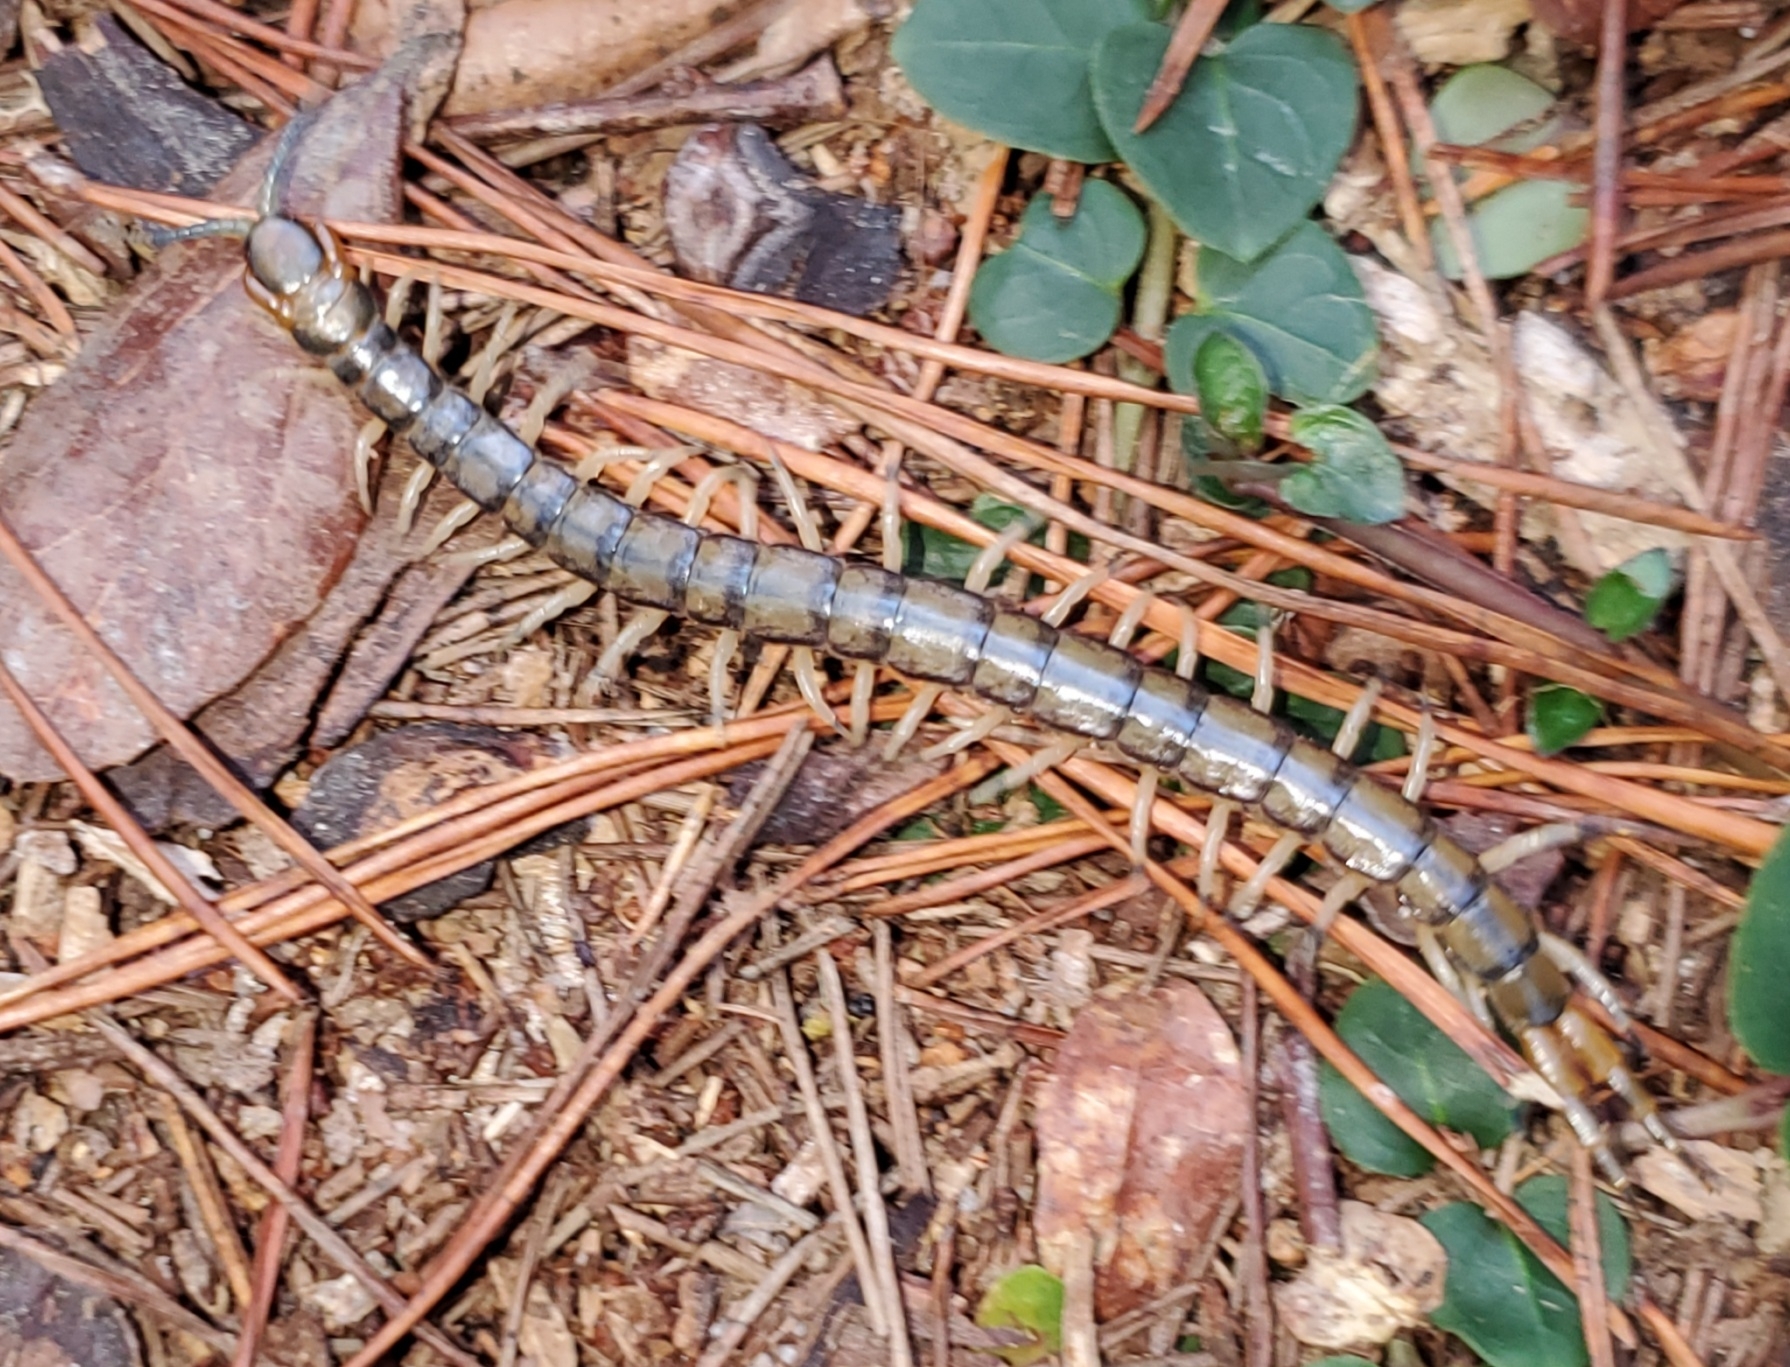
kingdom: Animalia
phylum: Arthropoda
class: Chilopoda
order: Scolopendromorpha
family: Scolopendridae
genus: Hemiscolopendra
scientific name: Hemiscolopendra marginata
